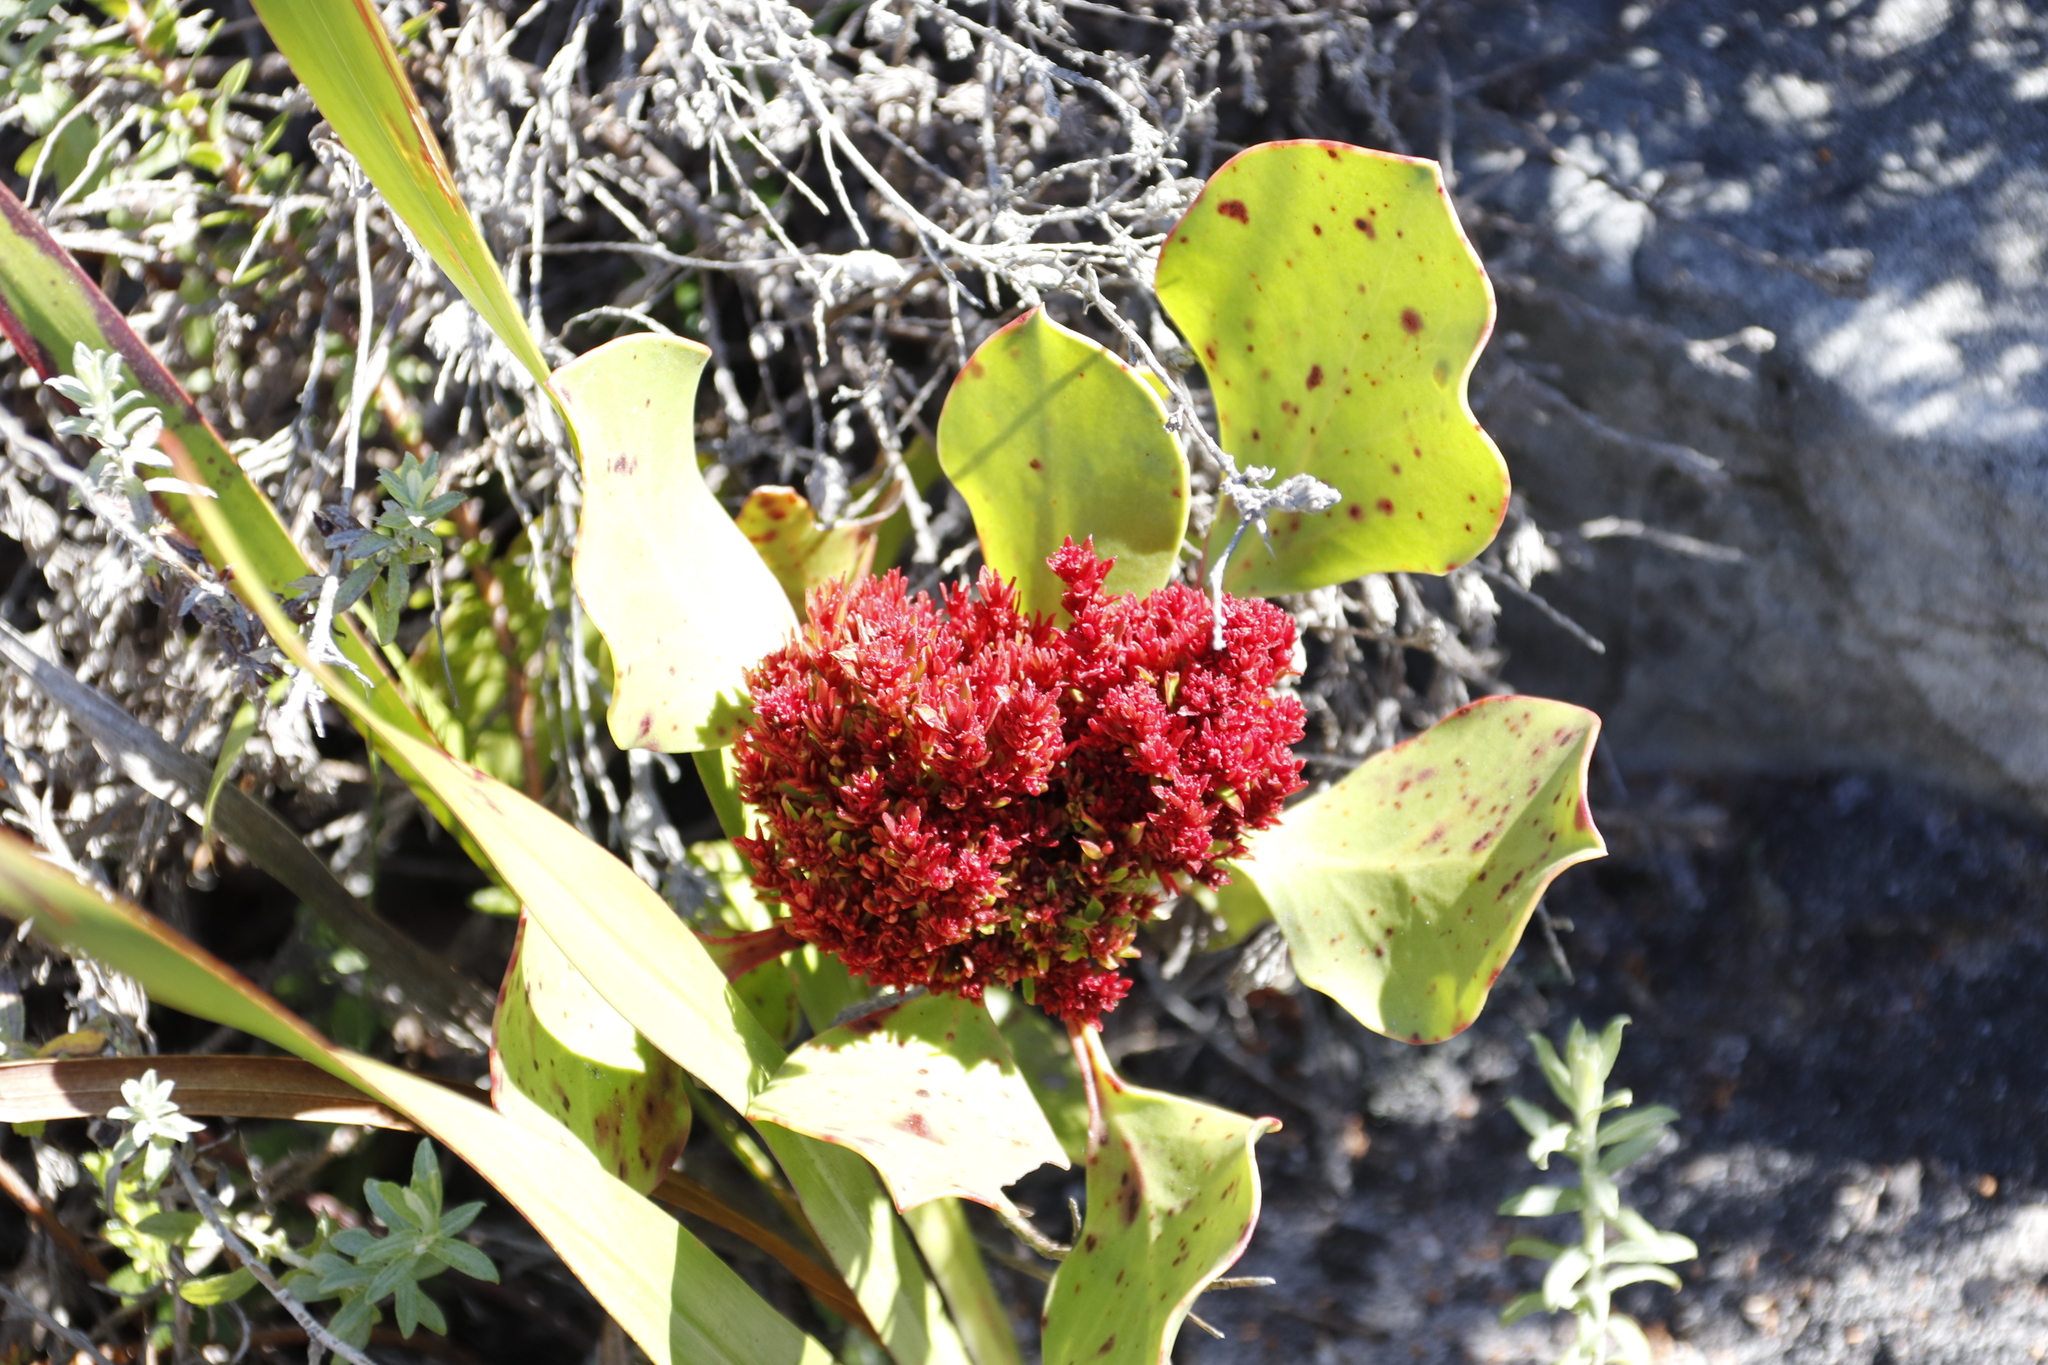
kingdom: Plantae
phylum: Tracheophyta
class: Magnoliopsida
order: Proteales
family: Proteaceae
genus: Protea
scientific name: Protea cynaroides
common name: King protea
